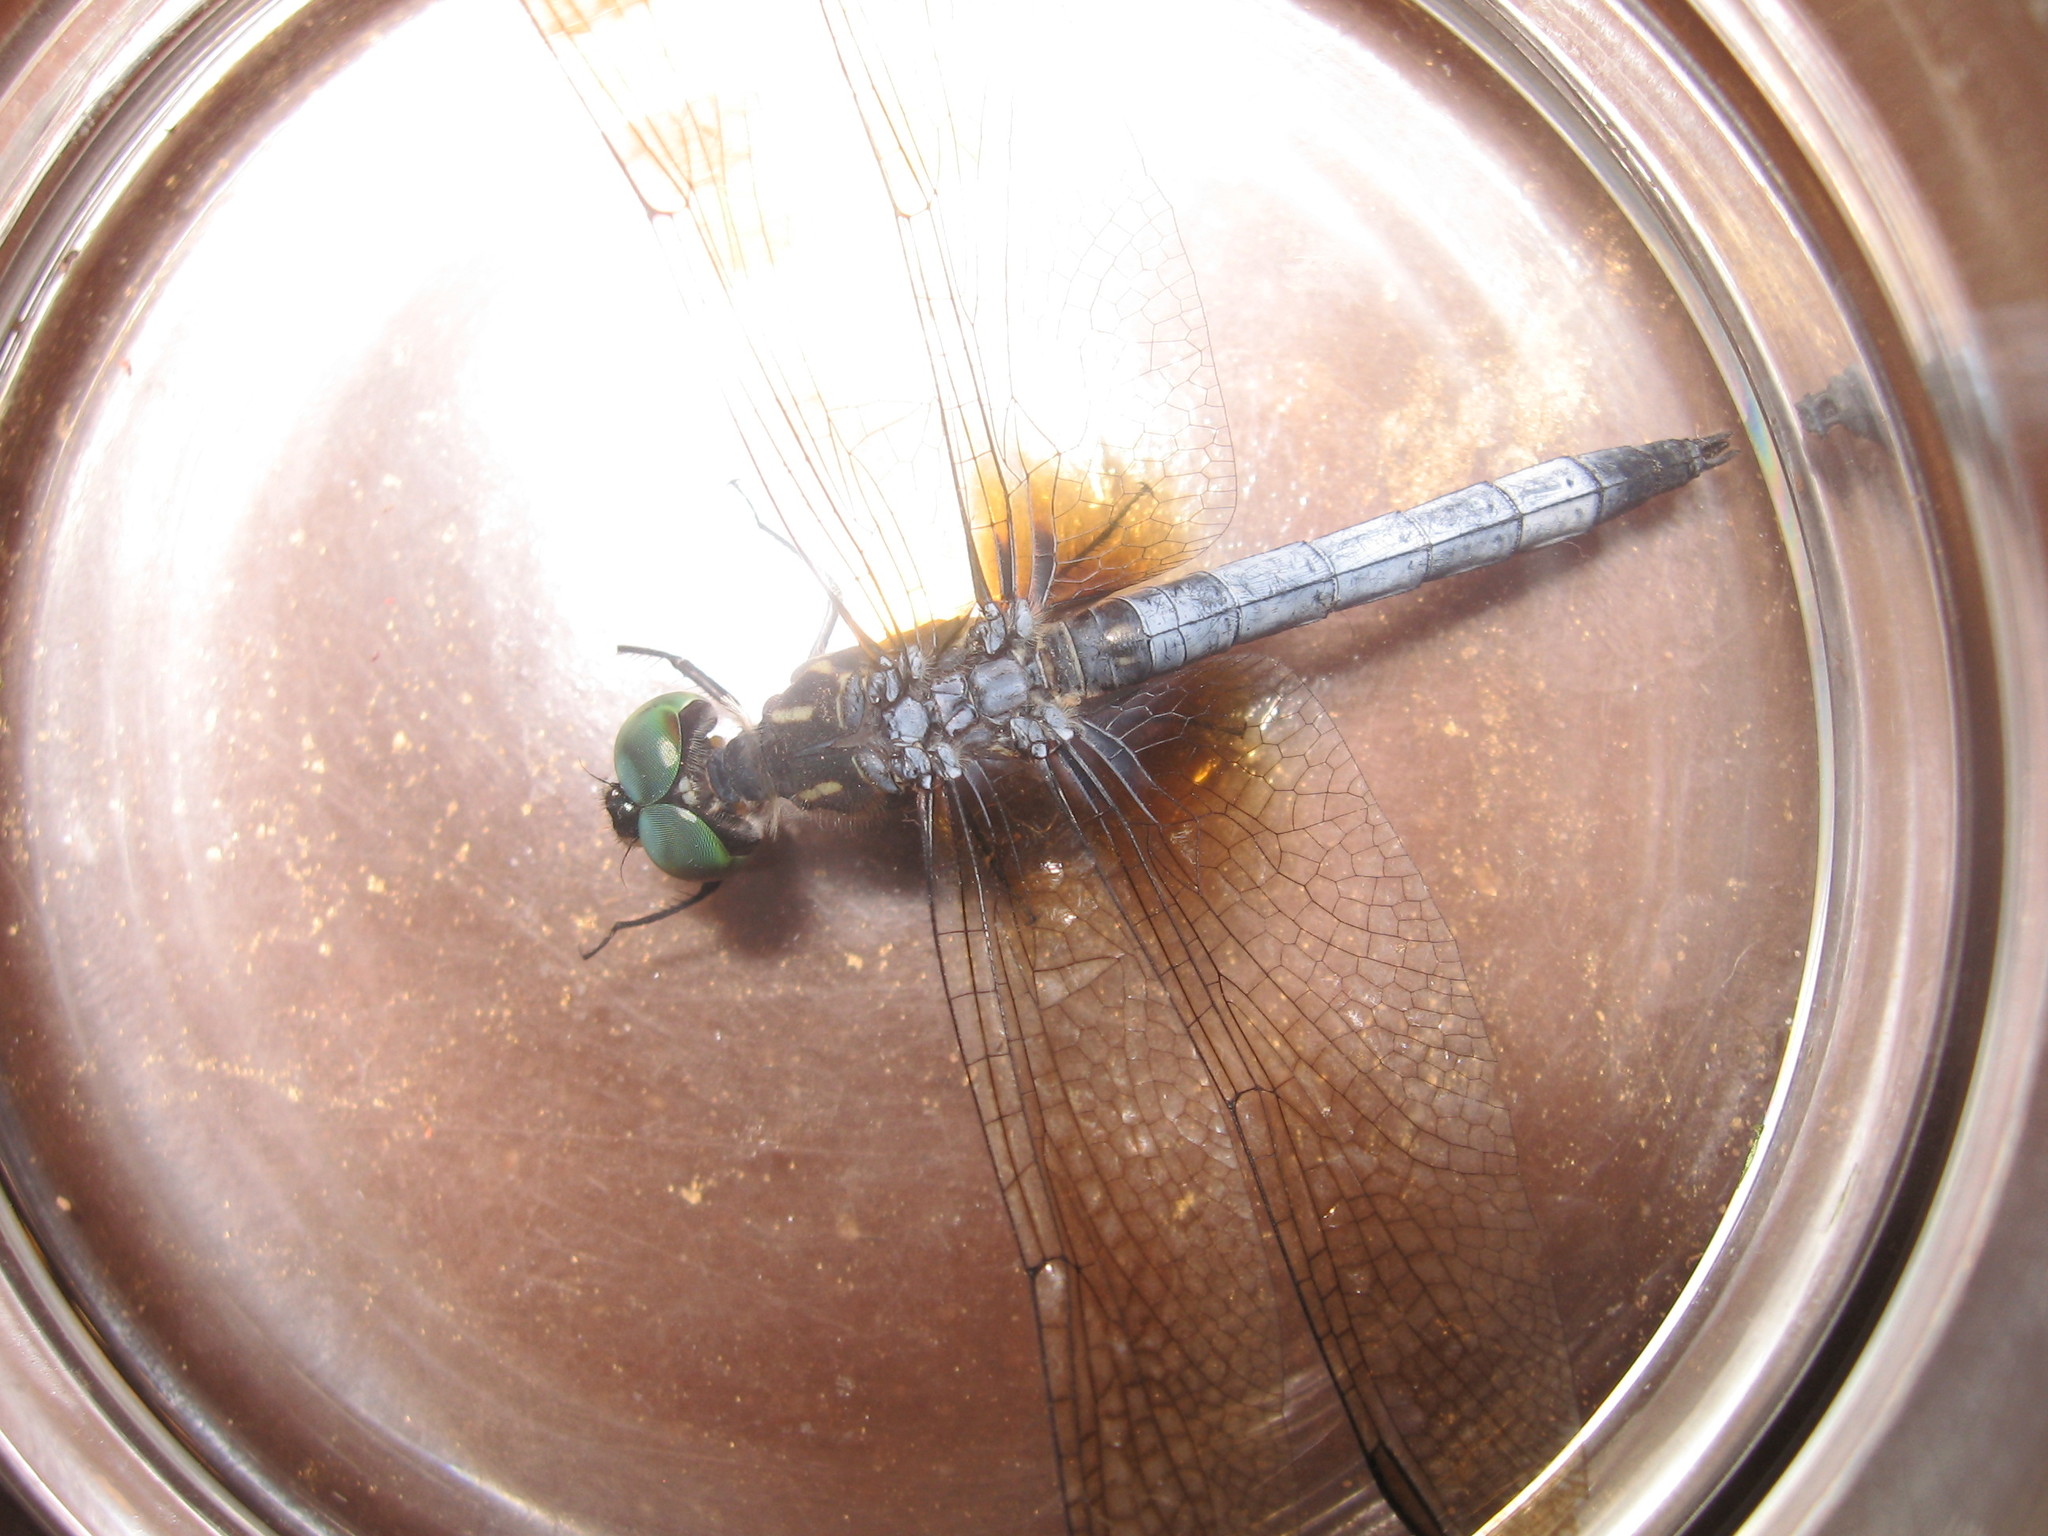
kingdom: Animalia
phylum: Arthropoda
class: Insecta
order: Odonata
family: Libellulidae
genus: Pachydiplax
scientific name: Pachydiplax longipennis
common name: Blue dasher
